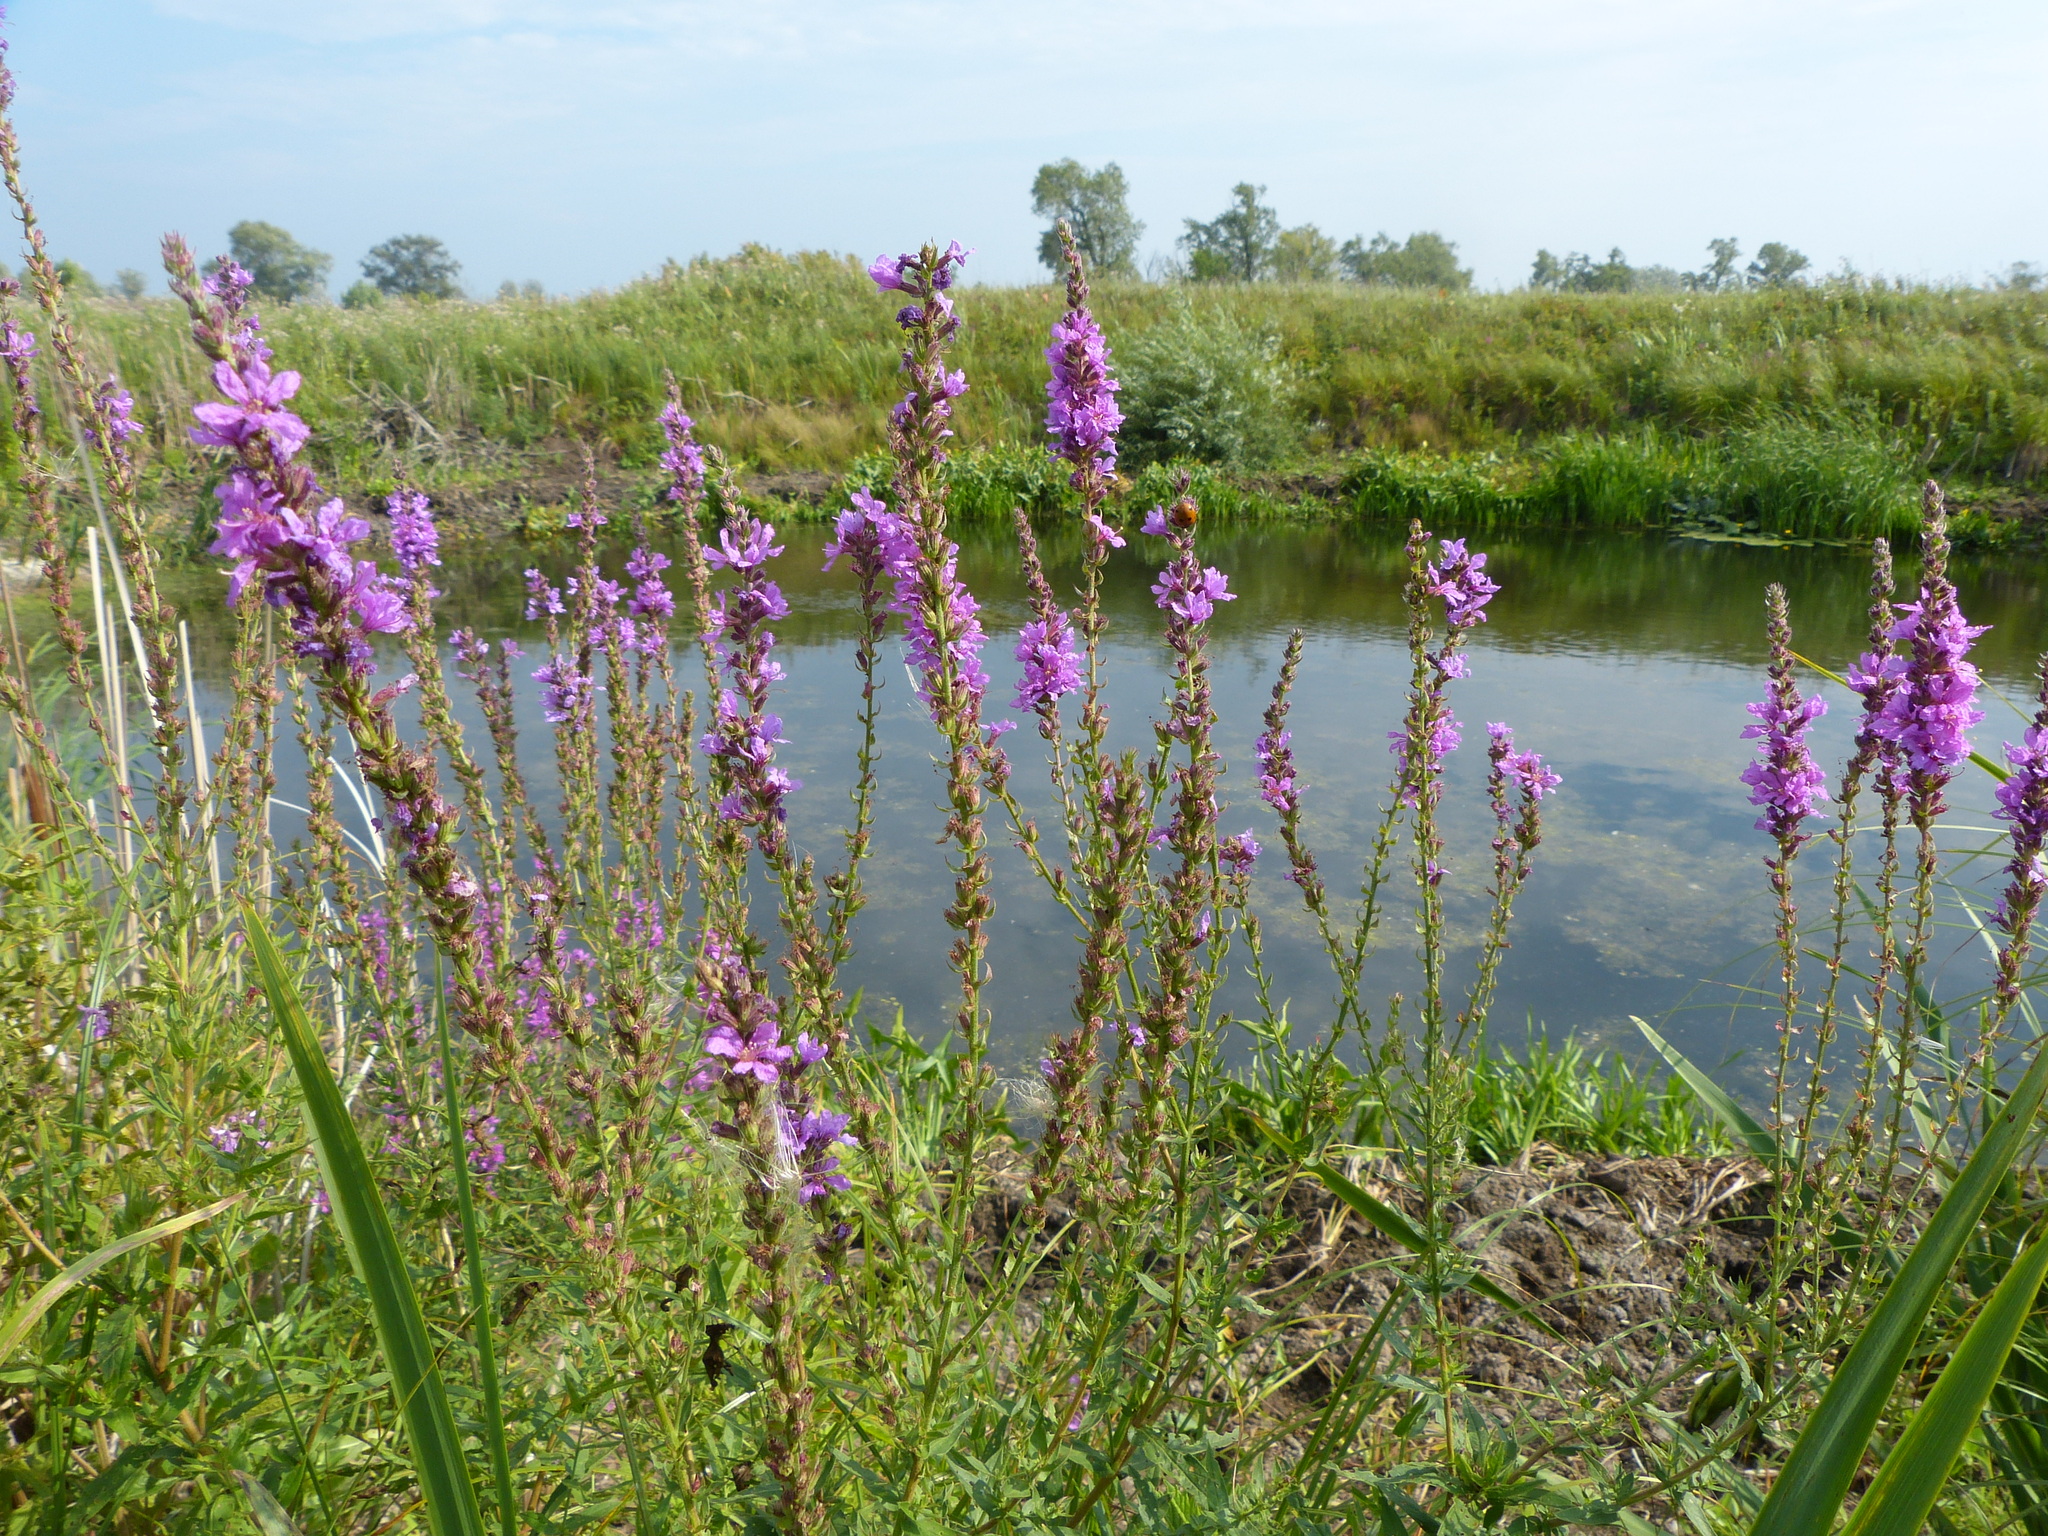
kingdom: Plantae
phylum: Tracheophyta
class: Magnoliopsida
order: Myrtales
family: Lythraceae
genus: Lythrum
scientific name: Lythrum salicaria
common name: Purple loosestrife
